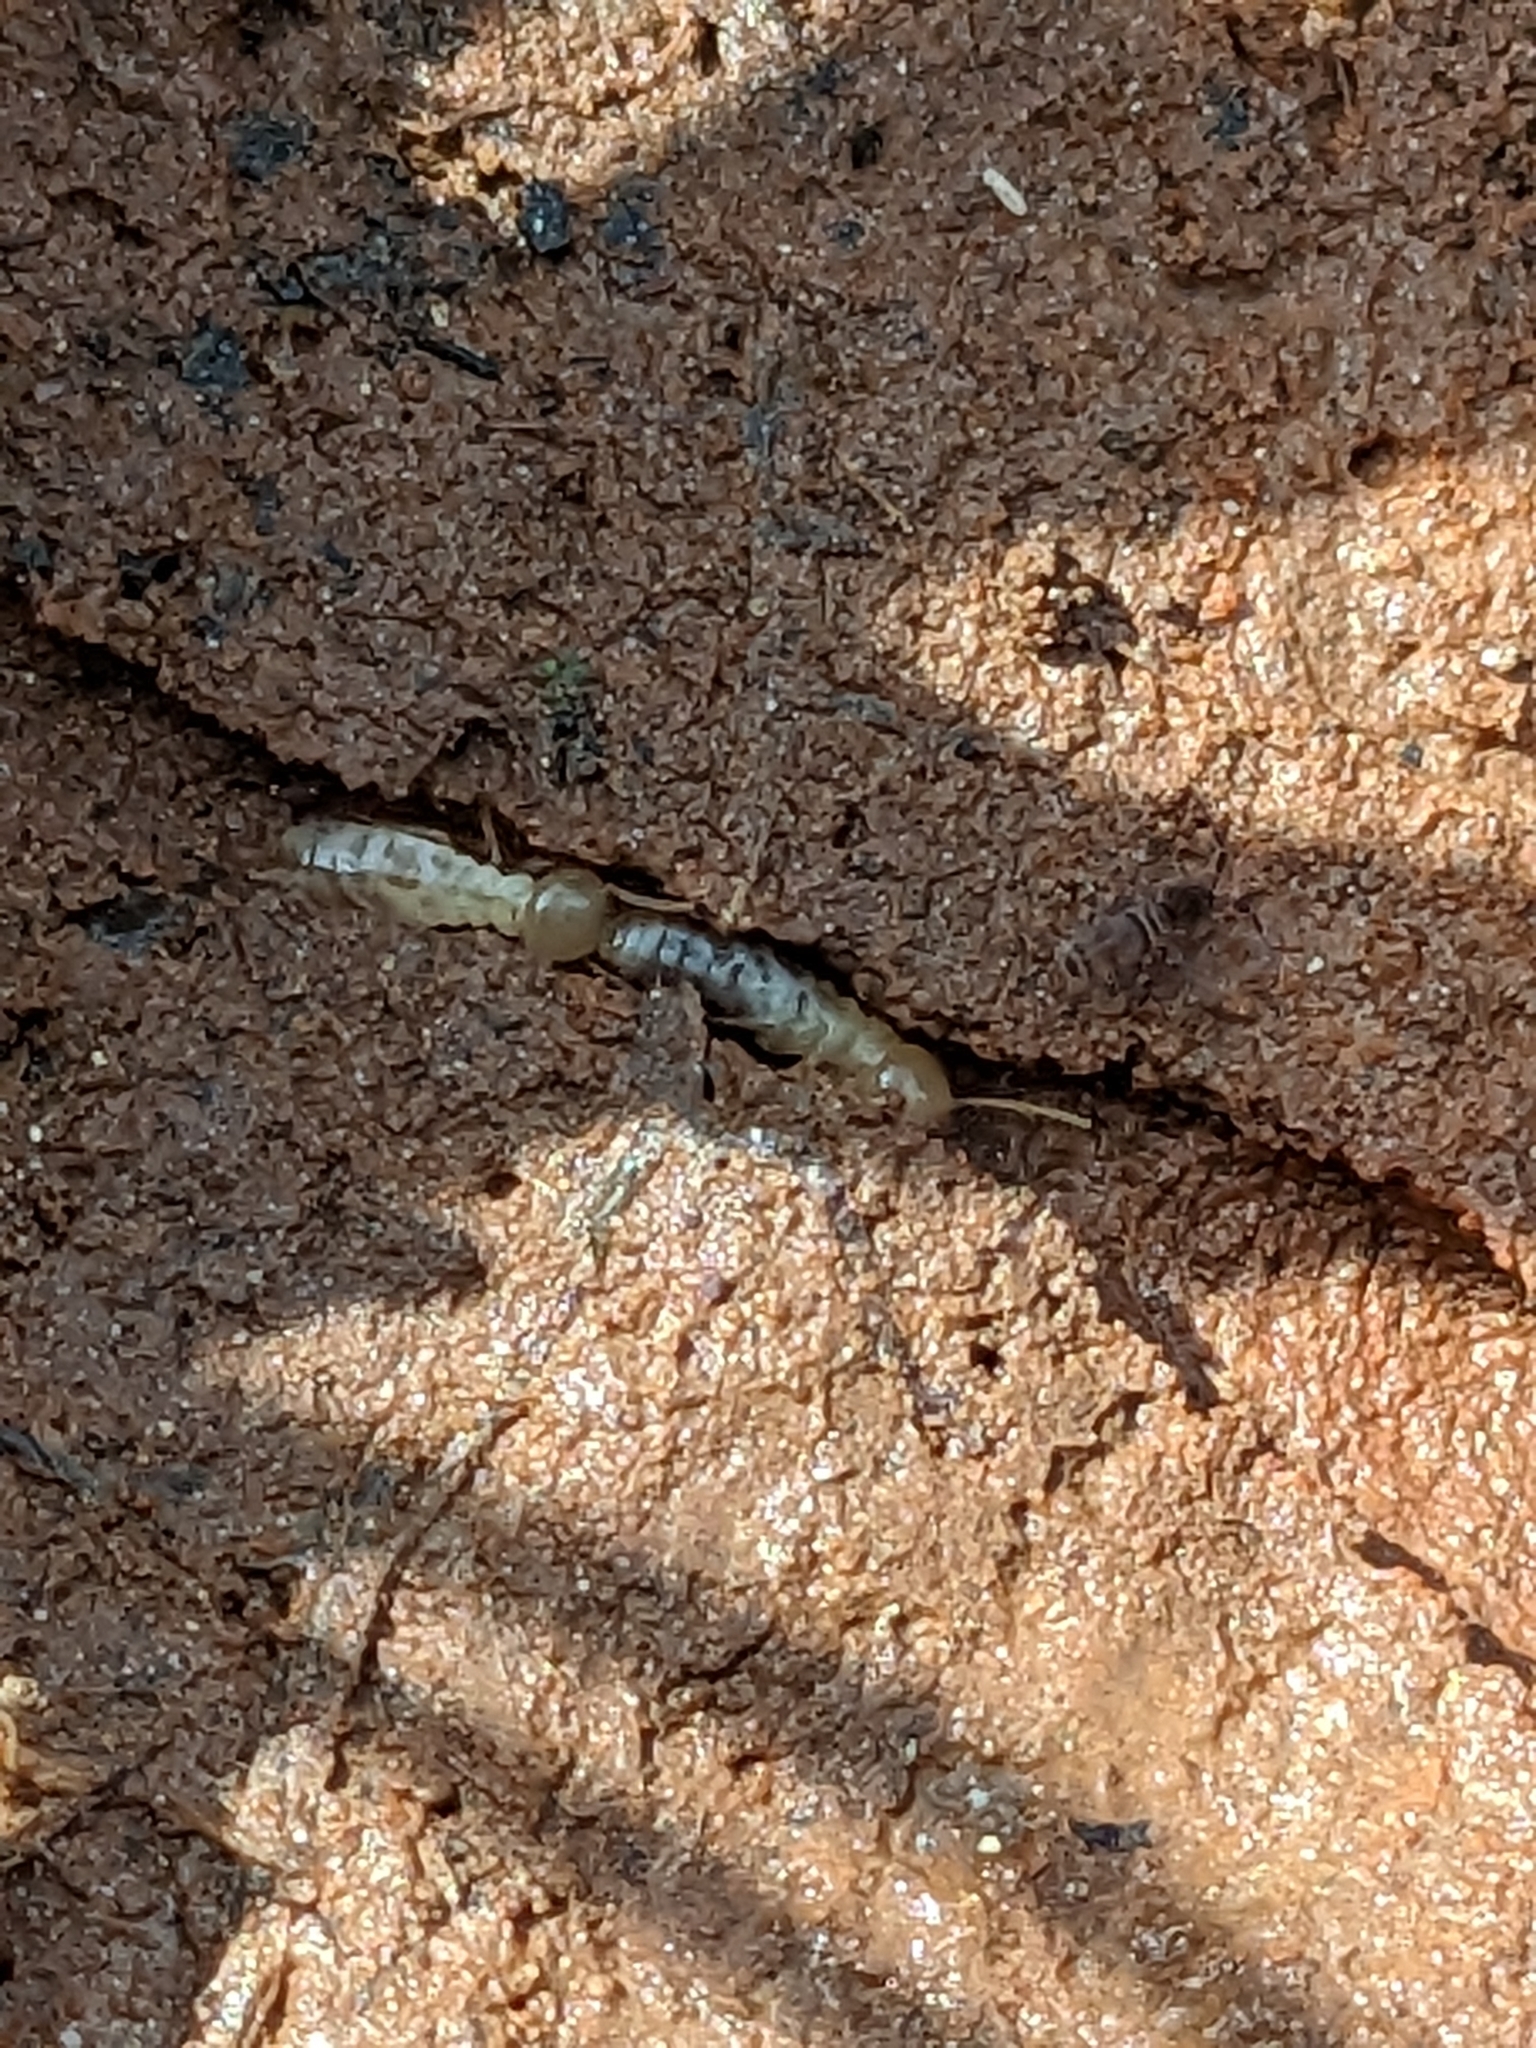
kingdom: Animalia
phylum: Arthropoda
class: Insecta
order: Blattodea
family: Rhinotermitidae
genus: Reticulitermes
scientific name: Reticulitermes flavipes
